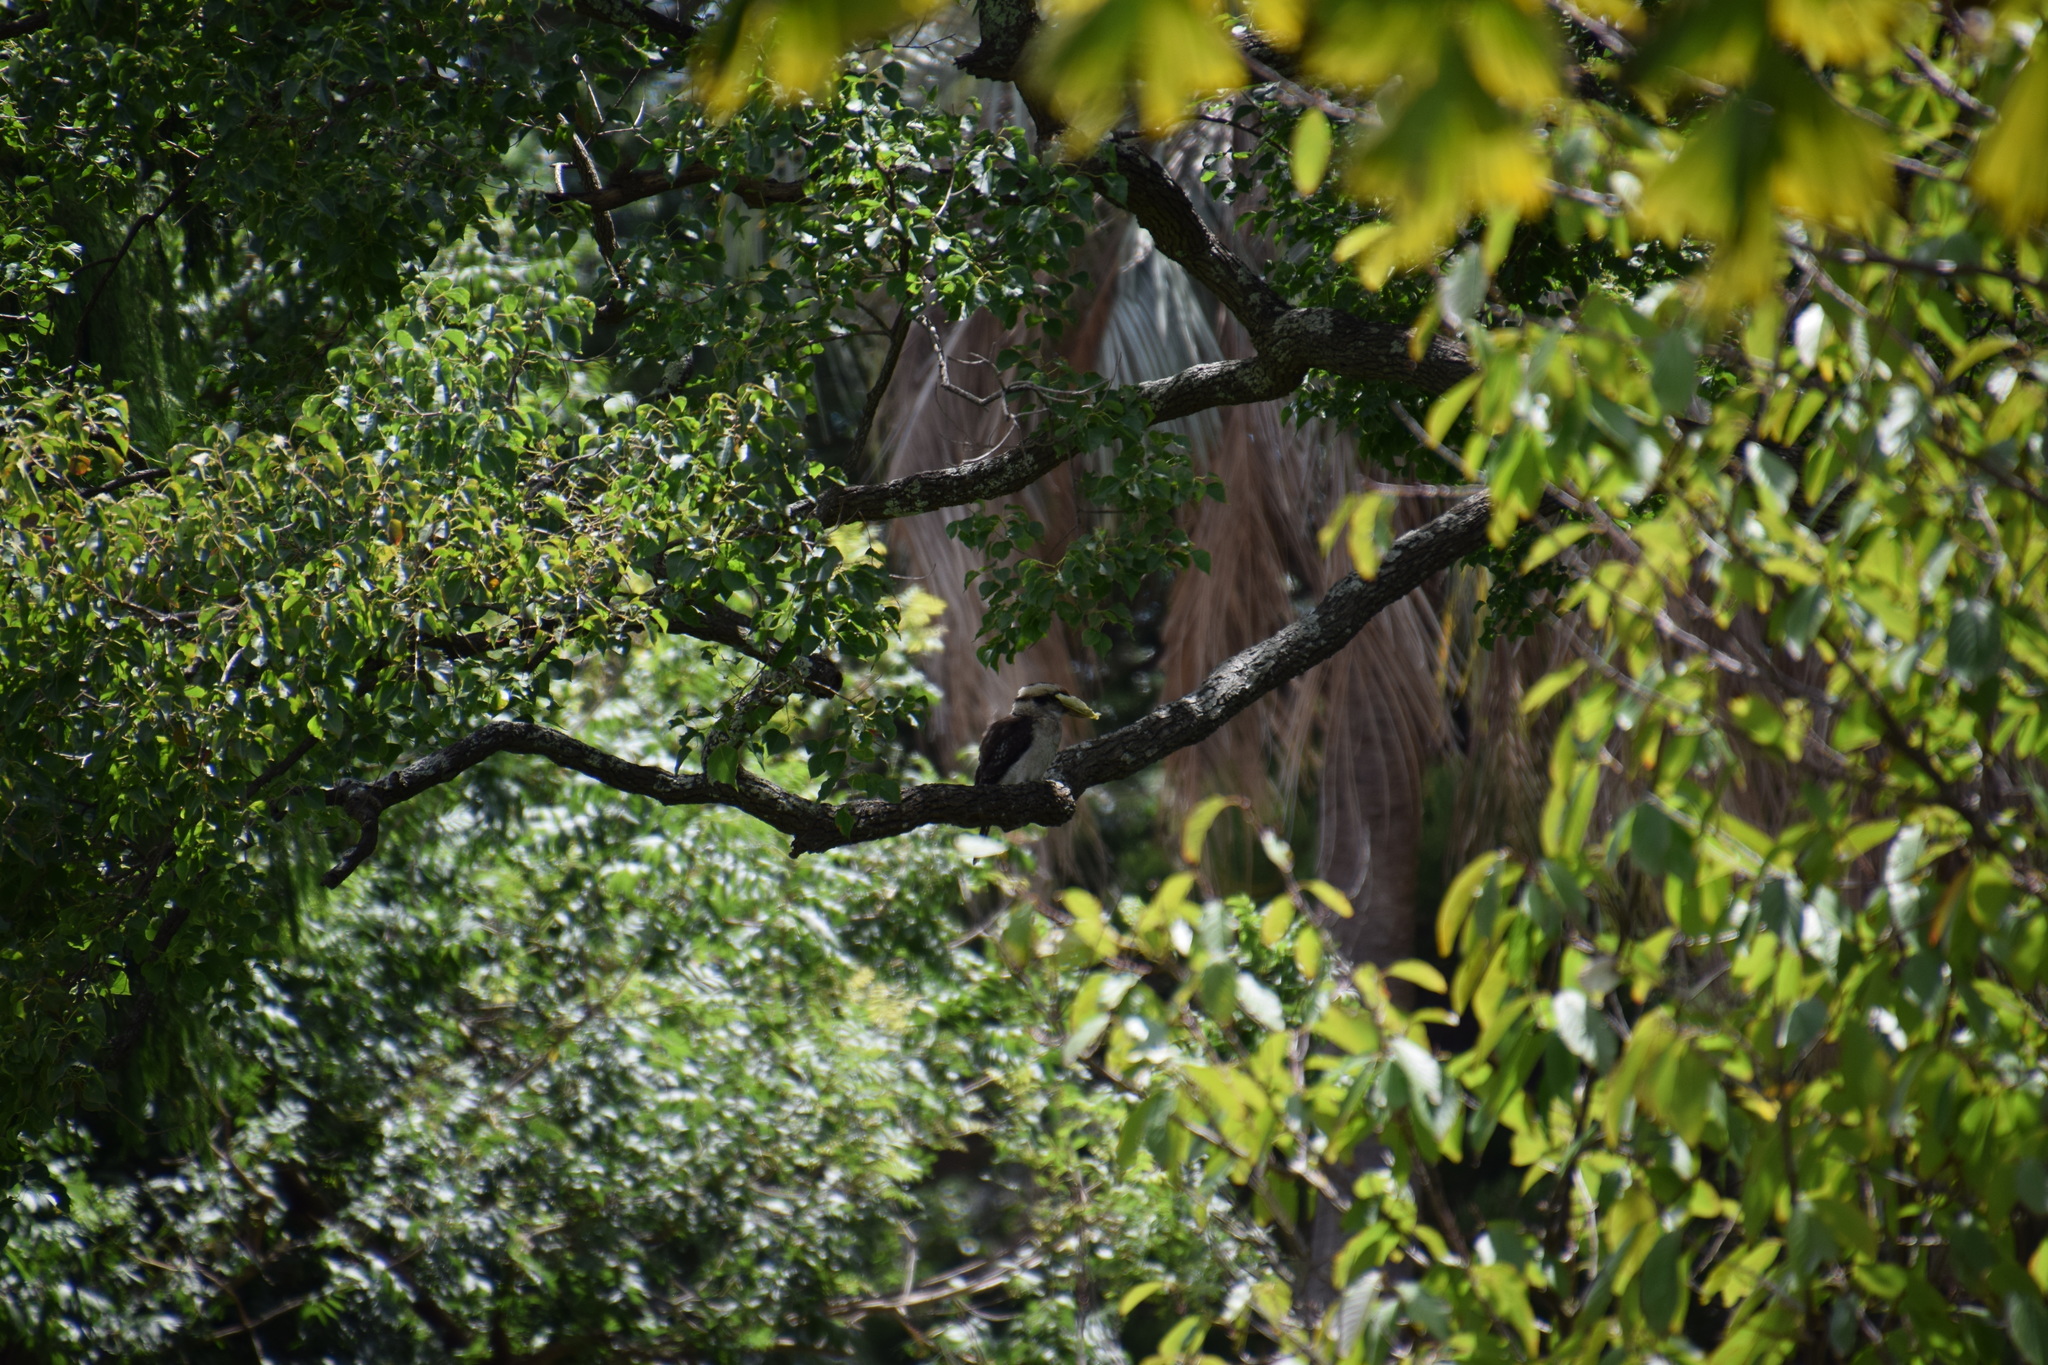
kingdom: Animalia
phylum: Chordata
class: Aves
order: Coraciiformes
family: Alcedinidae
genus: Dacelo
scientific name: Dacelo novaeguineae
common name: Laughing kookaburra
